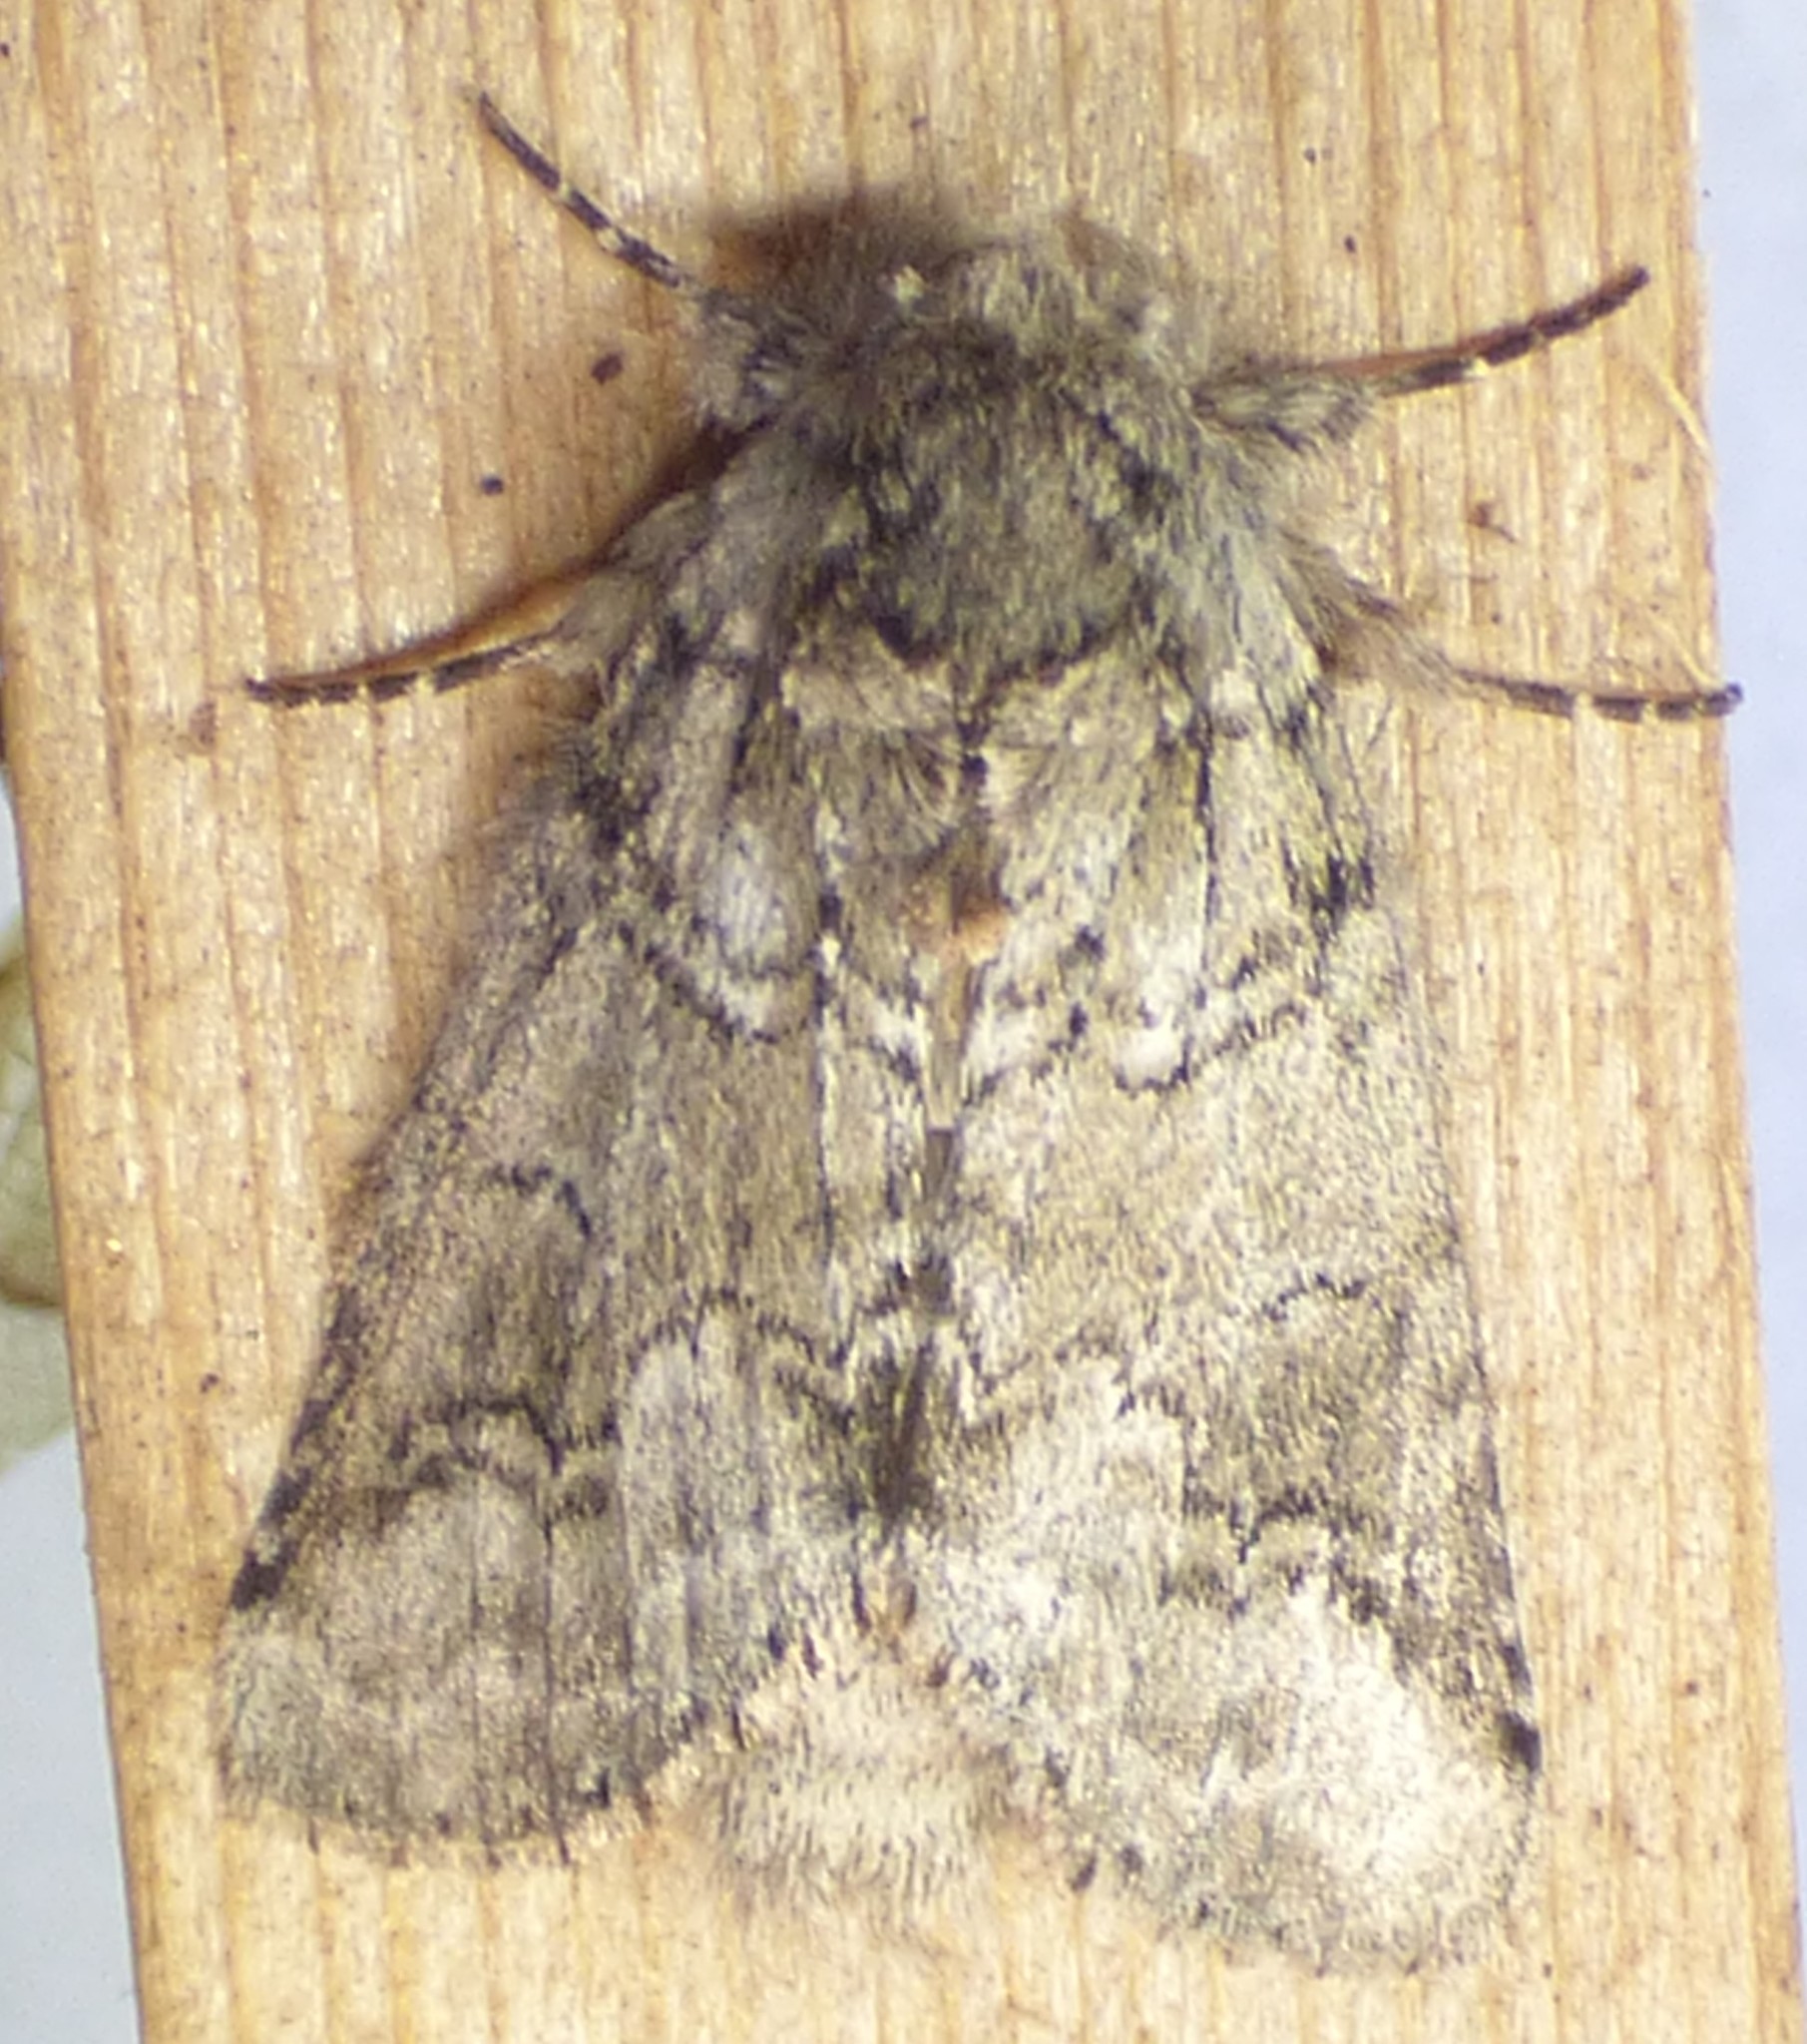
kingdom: Animalia
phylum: Arthropoda
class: Insecta
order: Lepidoptera
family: Notodontidae
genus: Lochmaeus
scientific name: Lochmaeus bilineata
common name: Double-lined prominent
